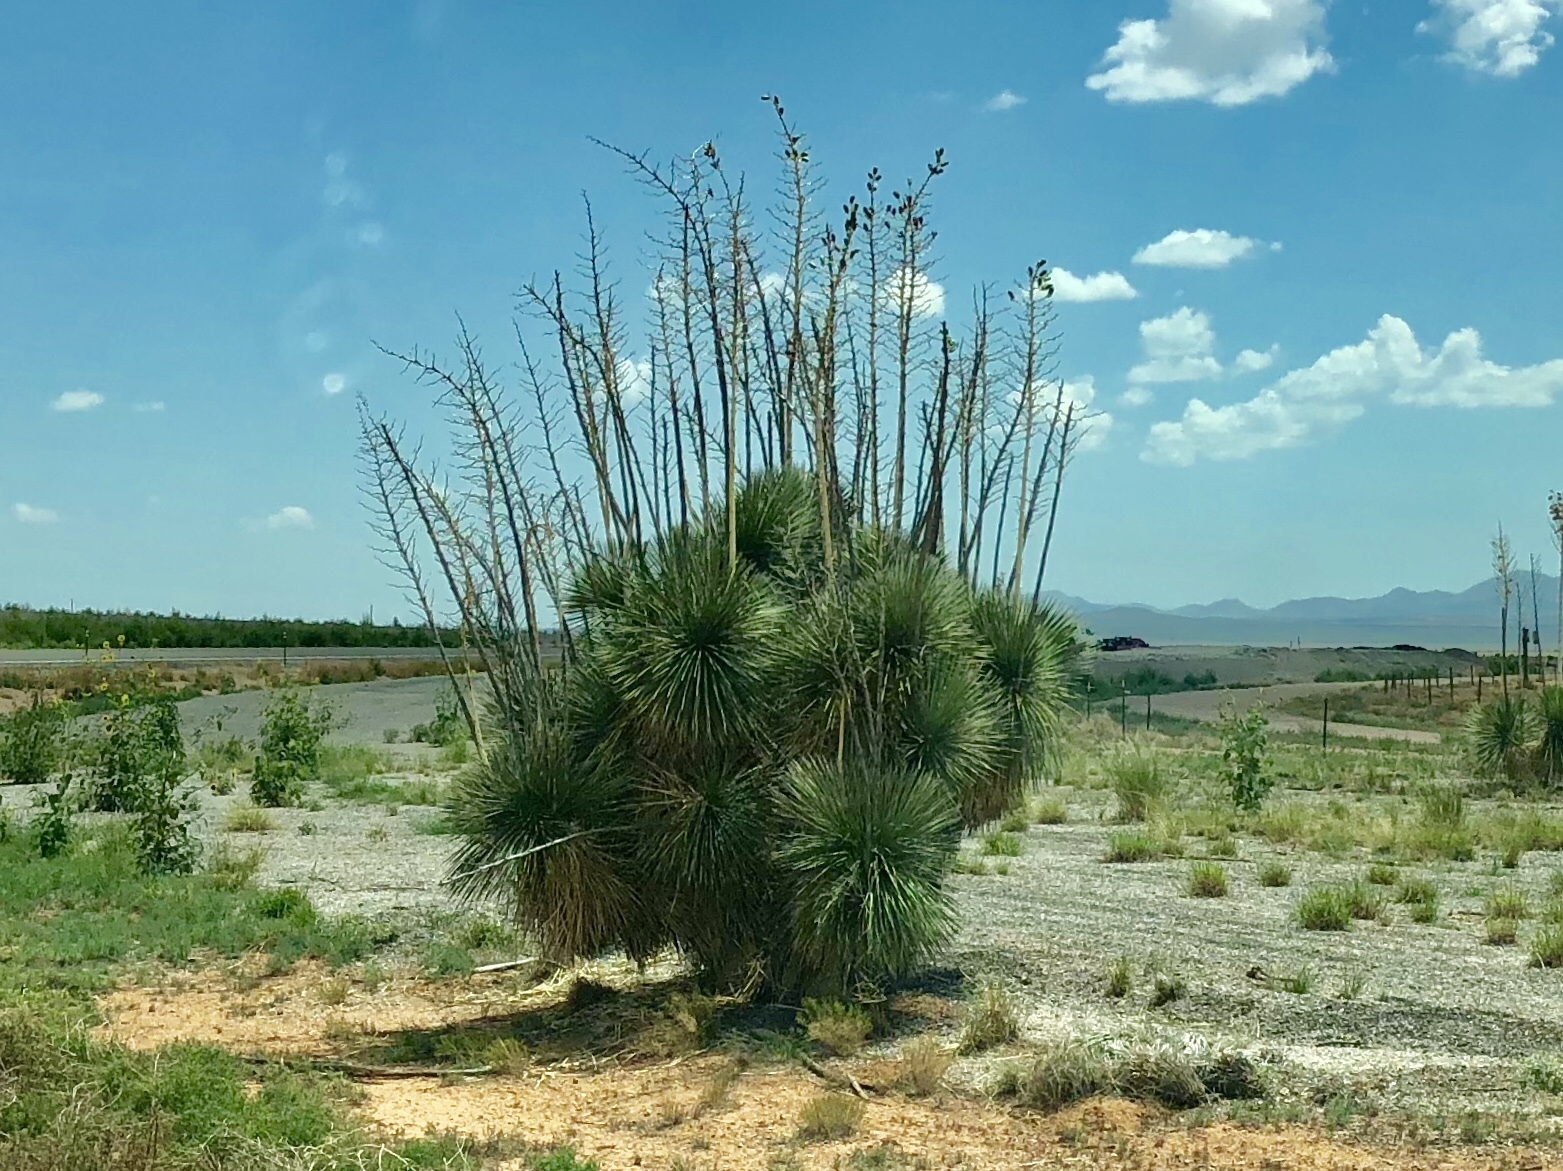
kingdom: Plantae
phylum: Tracheophyta
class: Liliopsida
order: Asparagales
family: Asparagaceae
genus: Yucca
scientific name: Yucca elata
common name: Palmella
